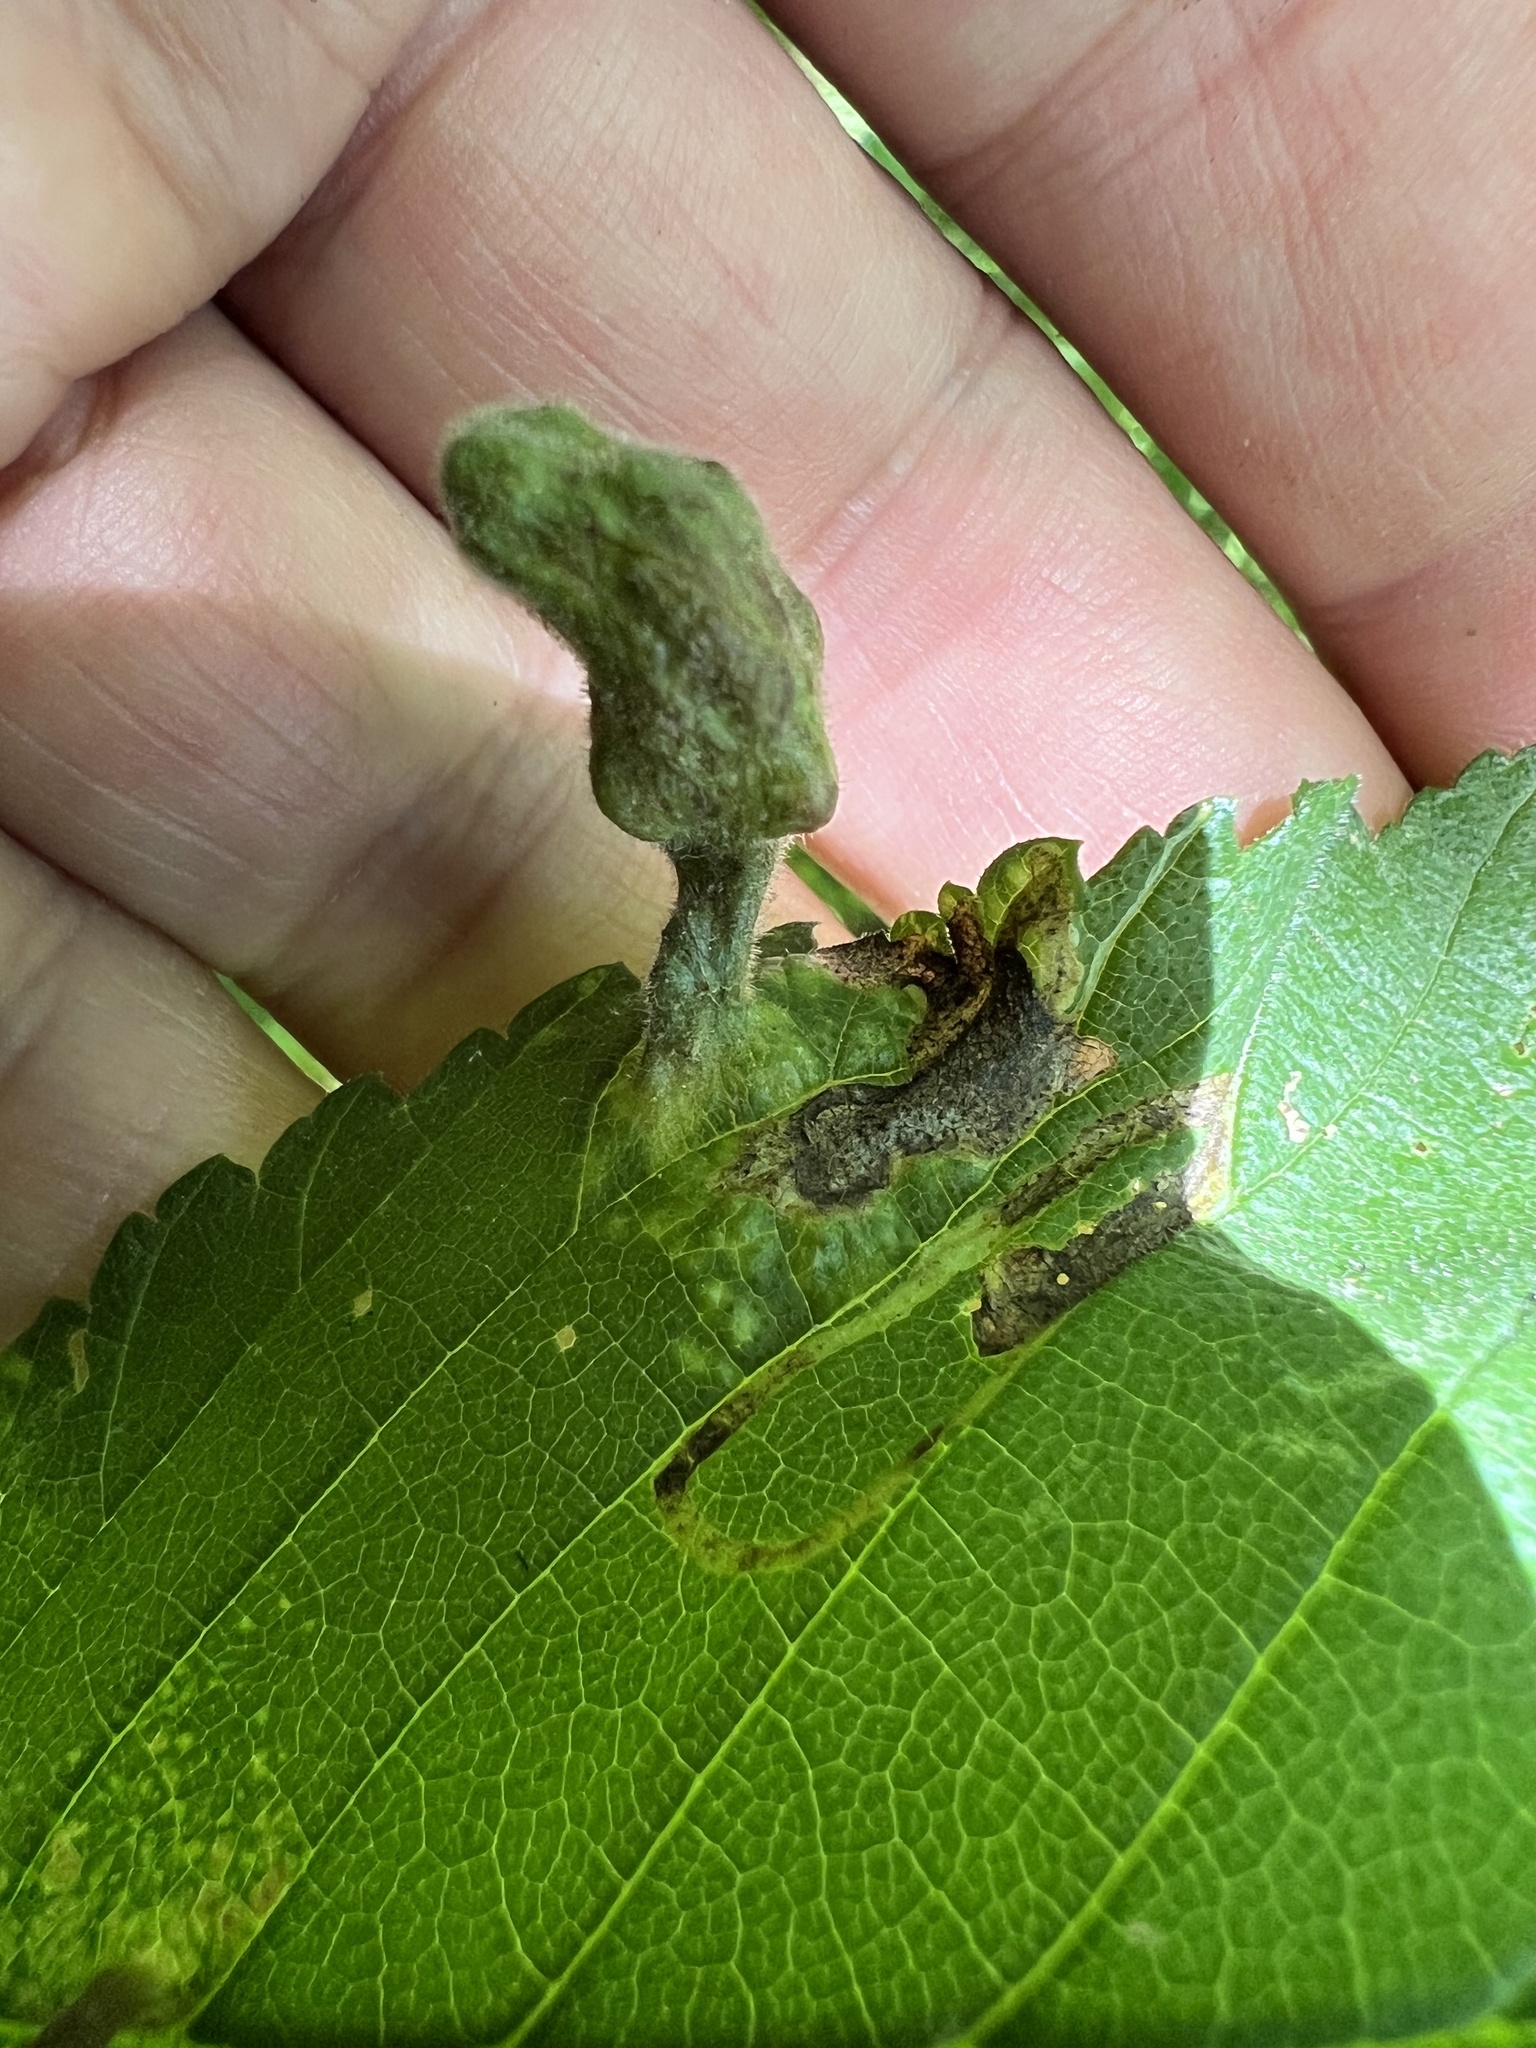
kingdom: Animalia
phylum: Arthropoda
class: Insecta
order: Hemiptera
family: Aphididae
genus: Tetraneura
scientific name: Tetraneura nigriabdominalis
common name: Aphid
